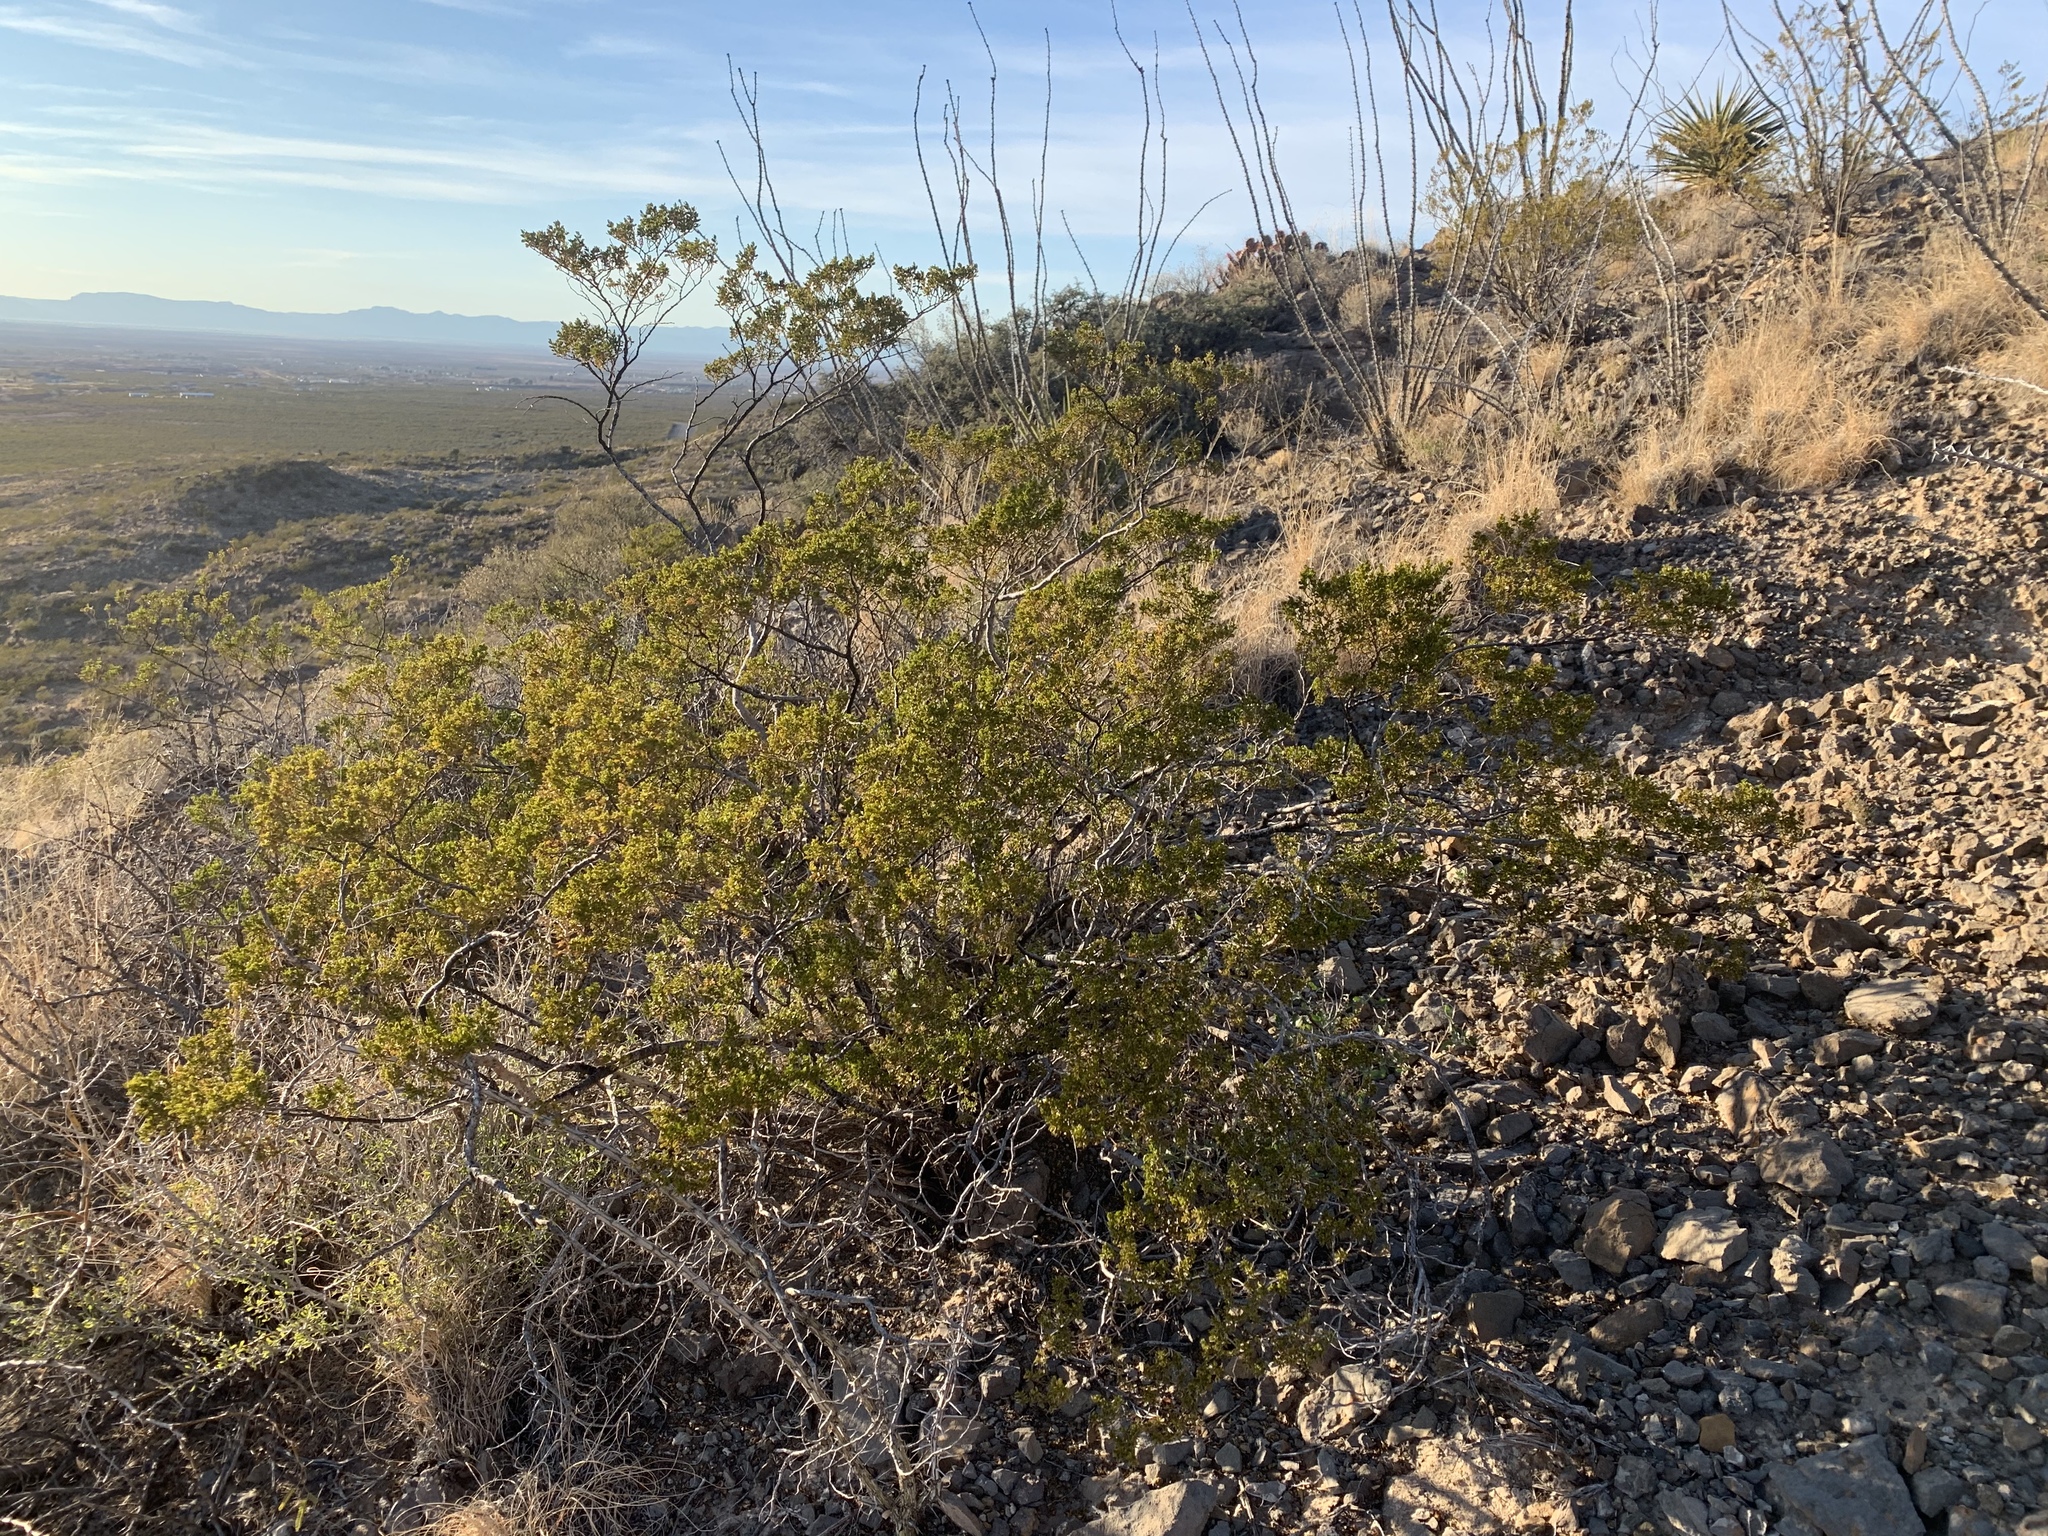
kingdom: Plantae
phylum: Tracheophyta
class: Magnoliopsida
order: Zygophyllales
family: Zygophyllaceae
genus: Larrea
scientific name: Larrea tridentata
